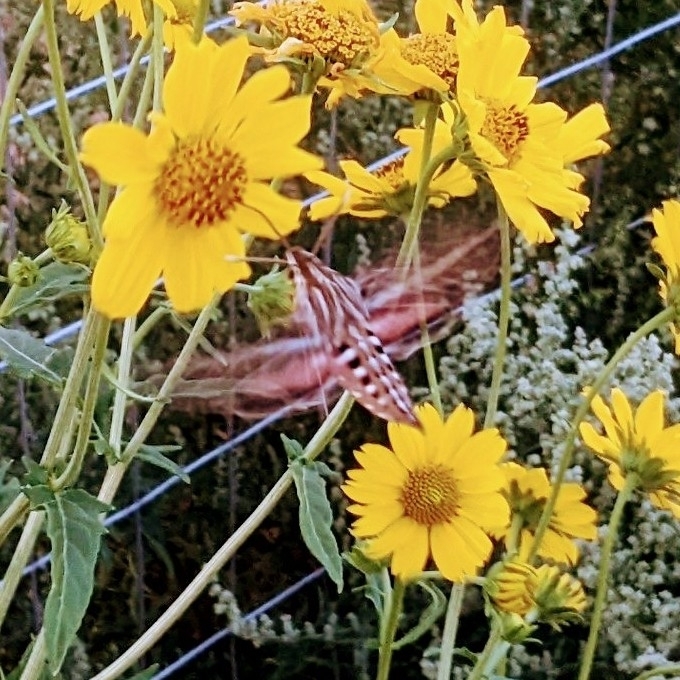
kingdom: Animalia
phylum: Arthropoda
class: Insecta
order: Lepidoptera
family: Sphingidae
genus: Hyles
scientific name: Hyles lineata
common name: White-lined sphinx
